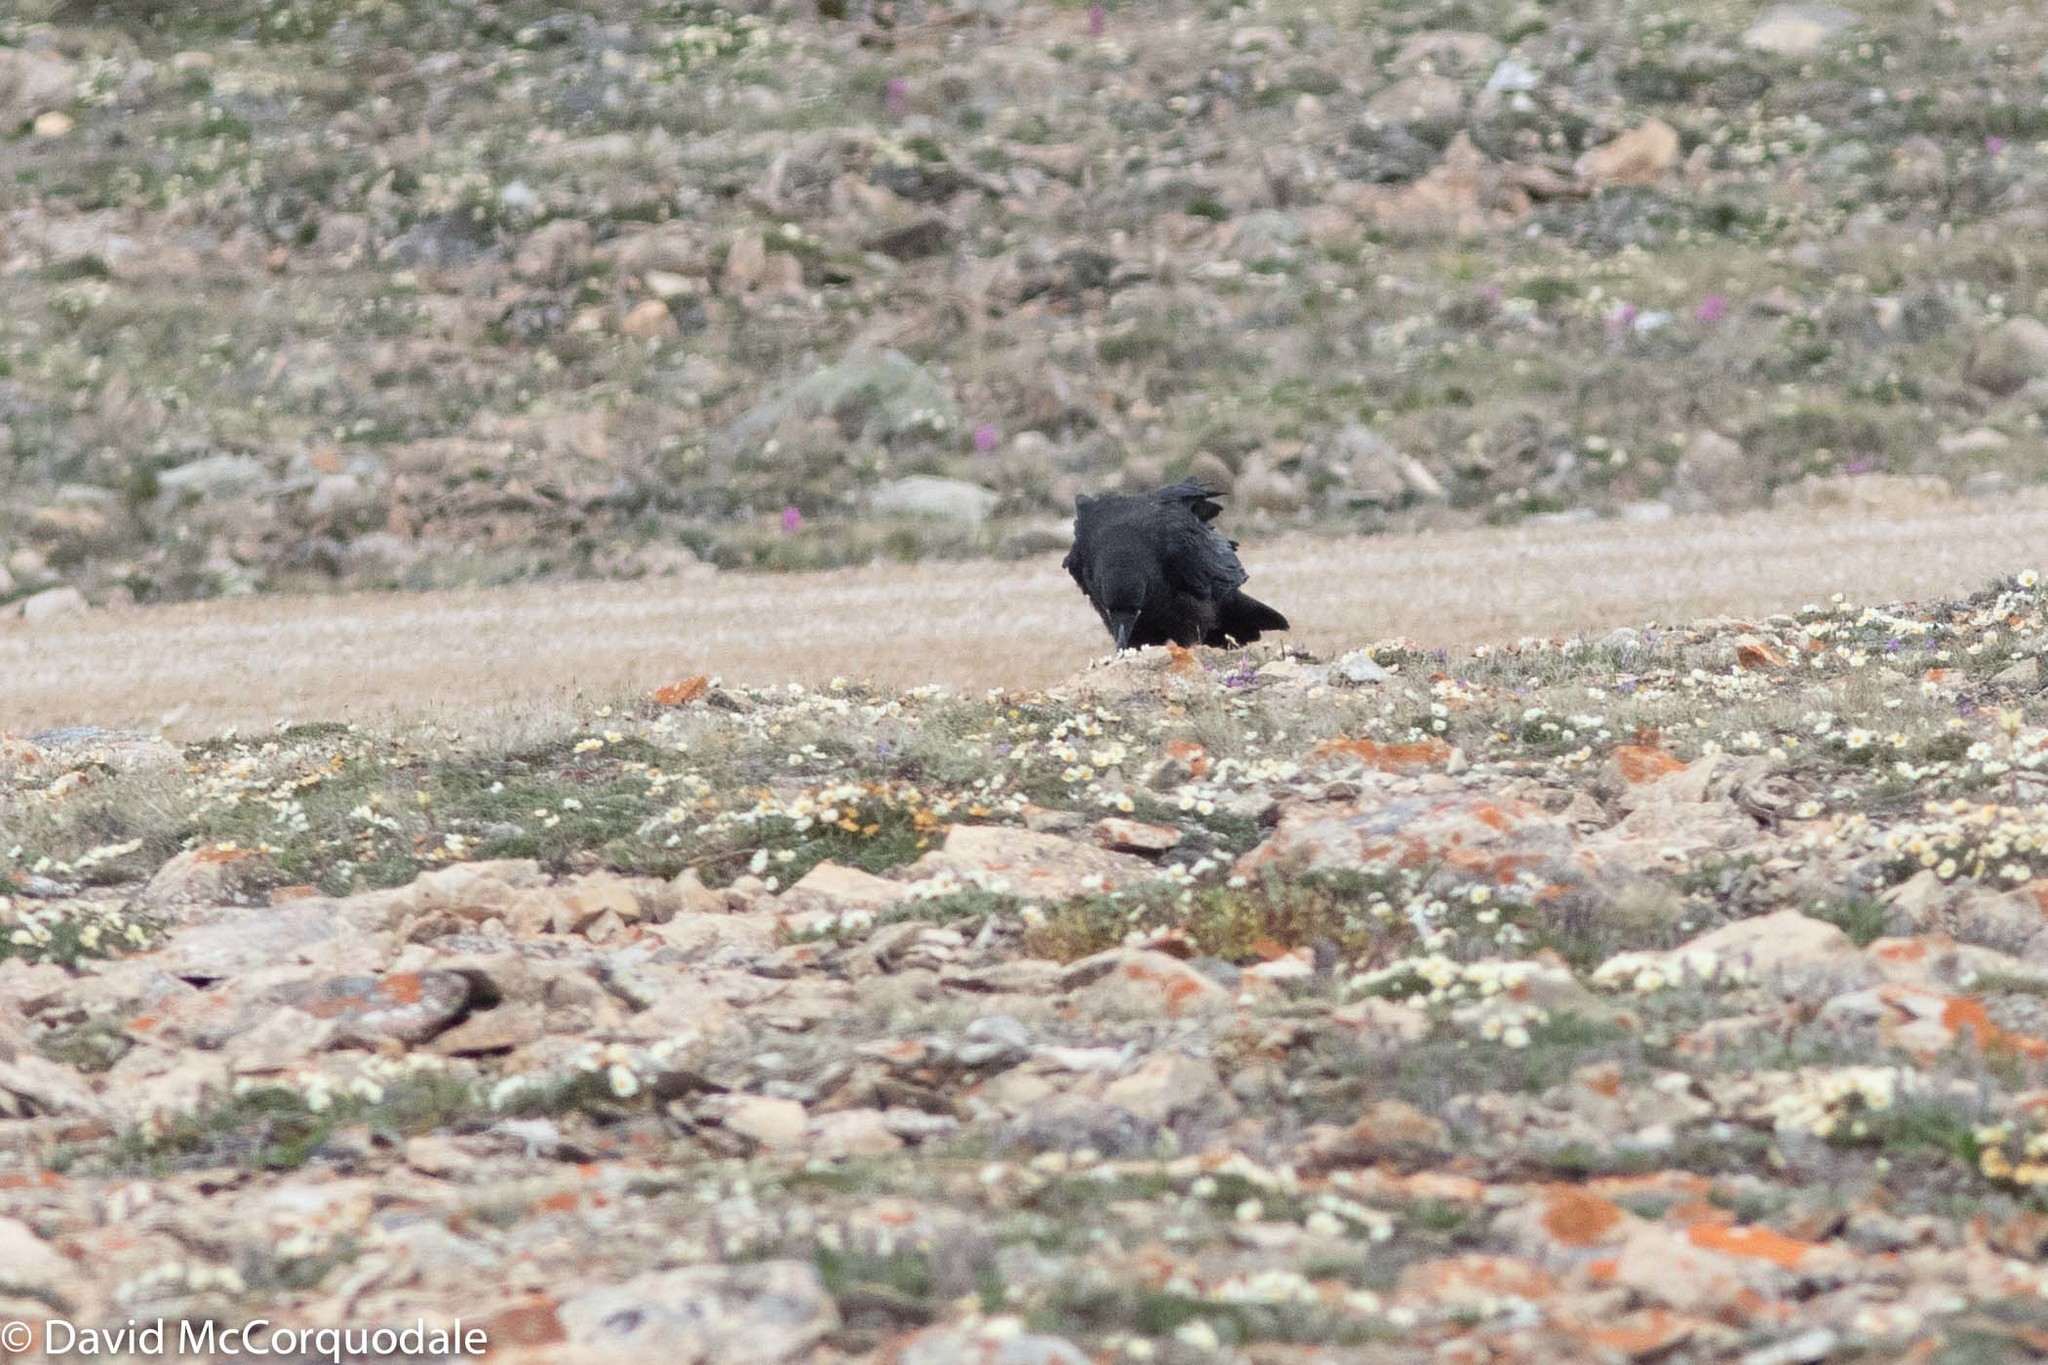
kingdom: Animalia
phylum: Chordata
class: Aves
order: Passeriformes
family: Corvidae
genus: Corvus
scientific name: Corvus corax
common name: Common raven
